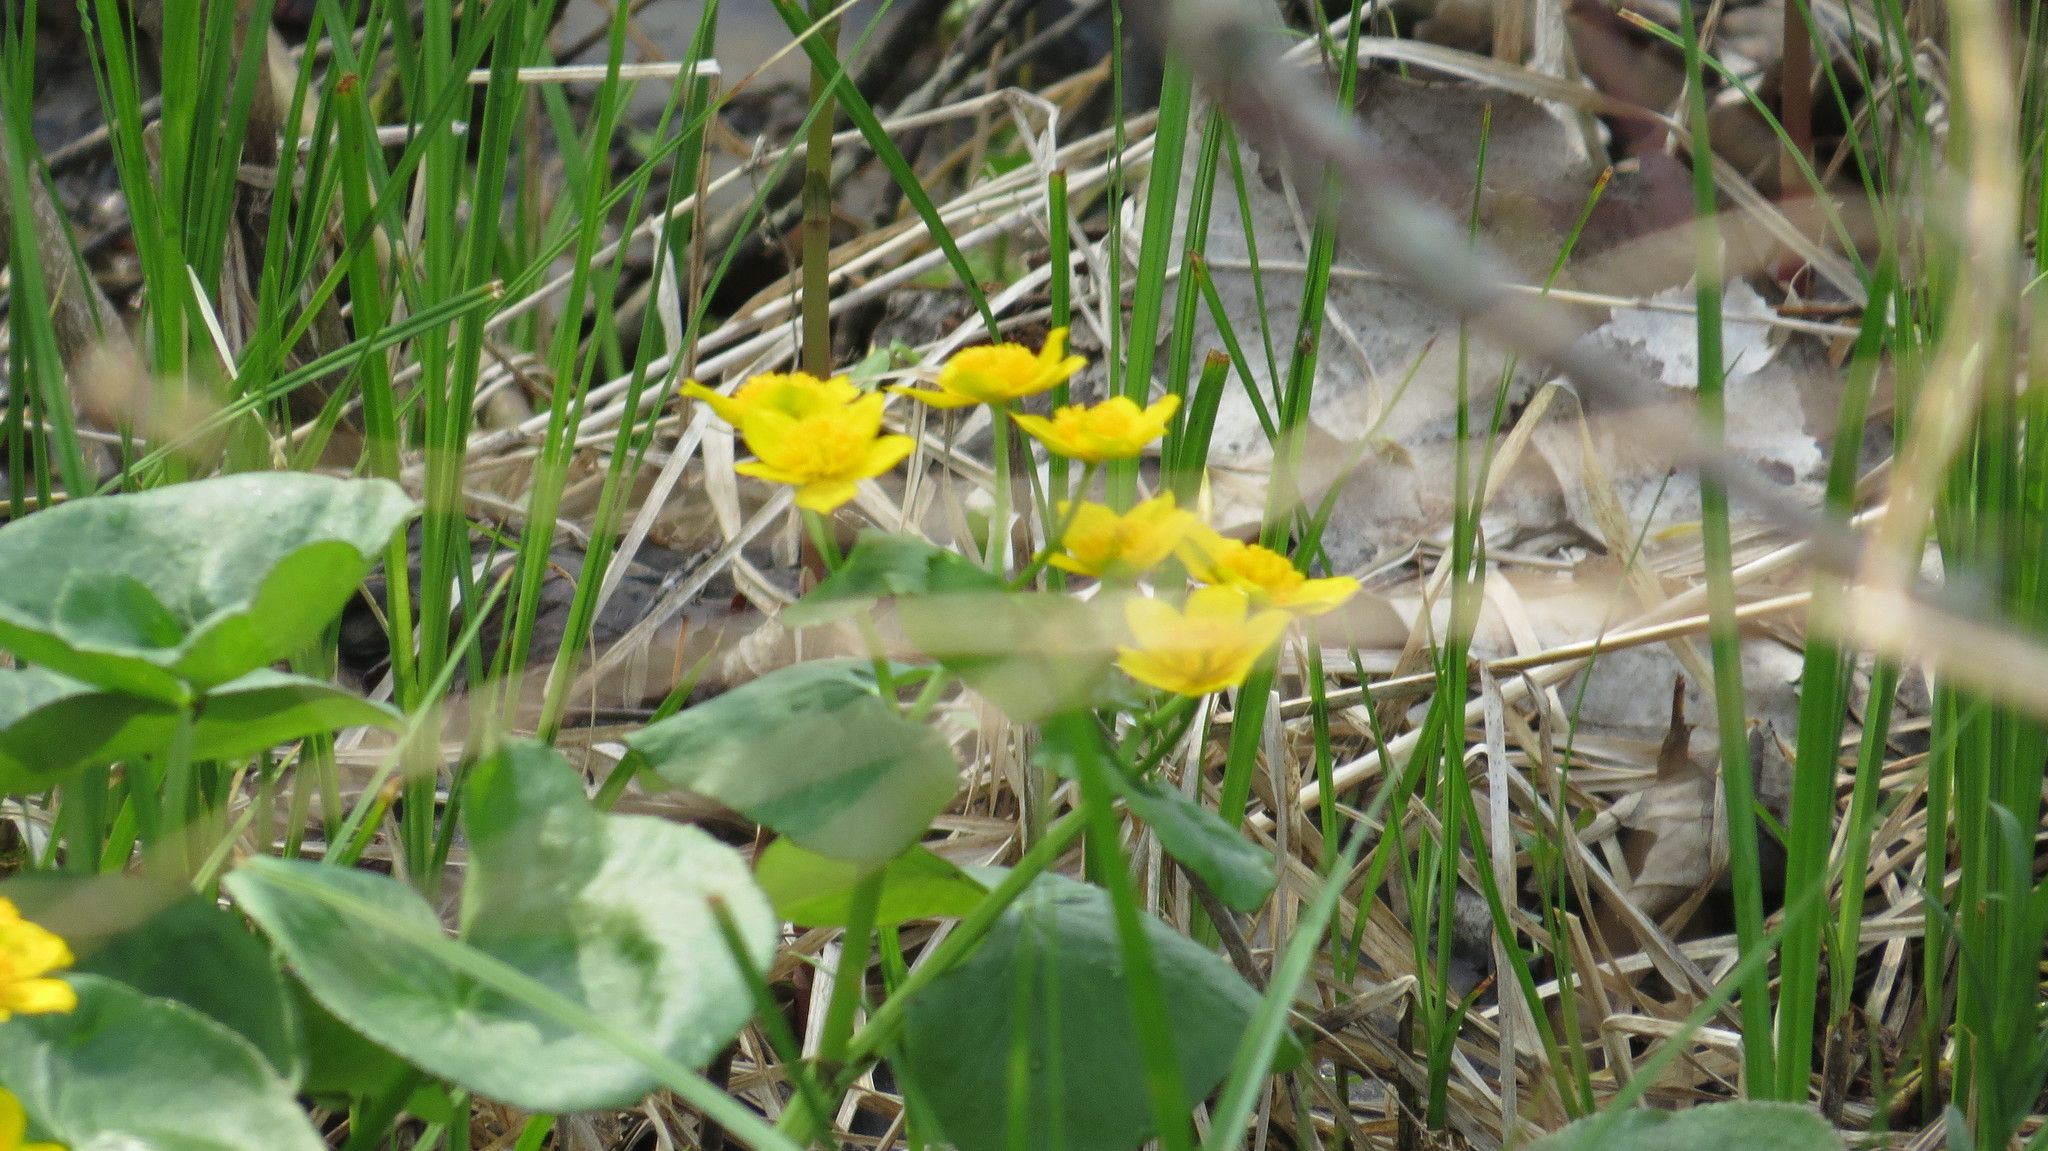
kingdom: Plantae
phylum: Tracheophyta
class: Magnoliopsida
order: Ranunculales
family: Ranunculaceae
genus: Caltha
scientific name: Caltha palustris
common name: Marsh marigold
